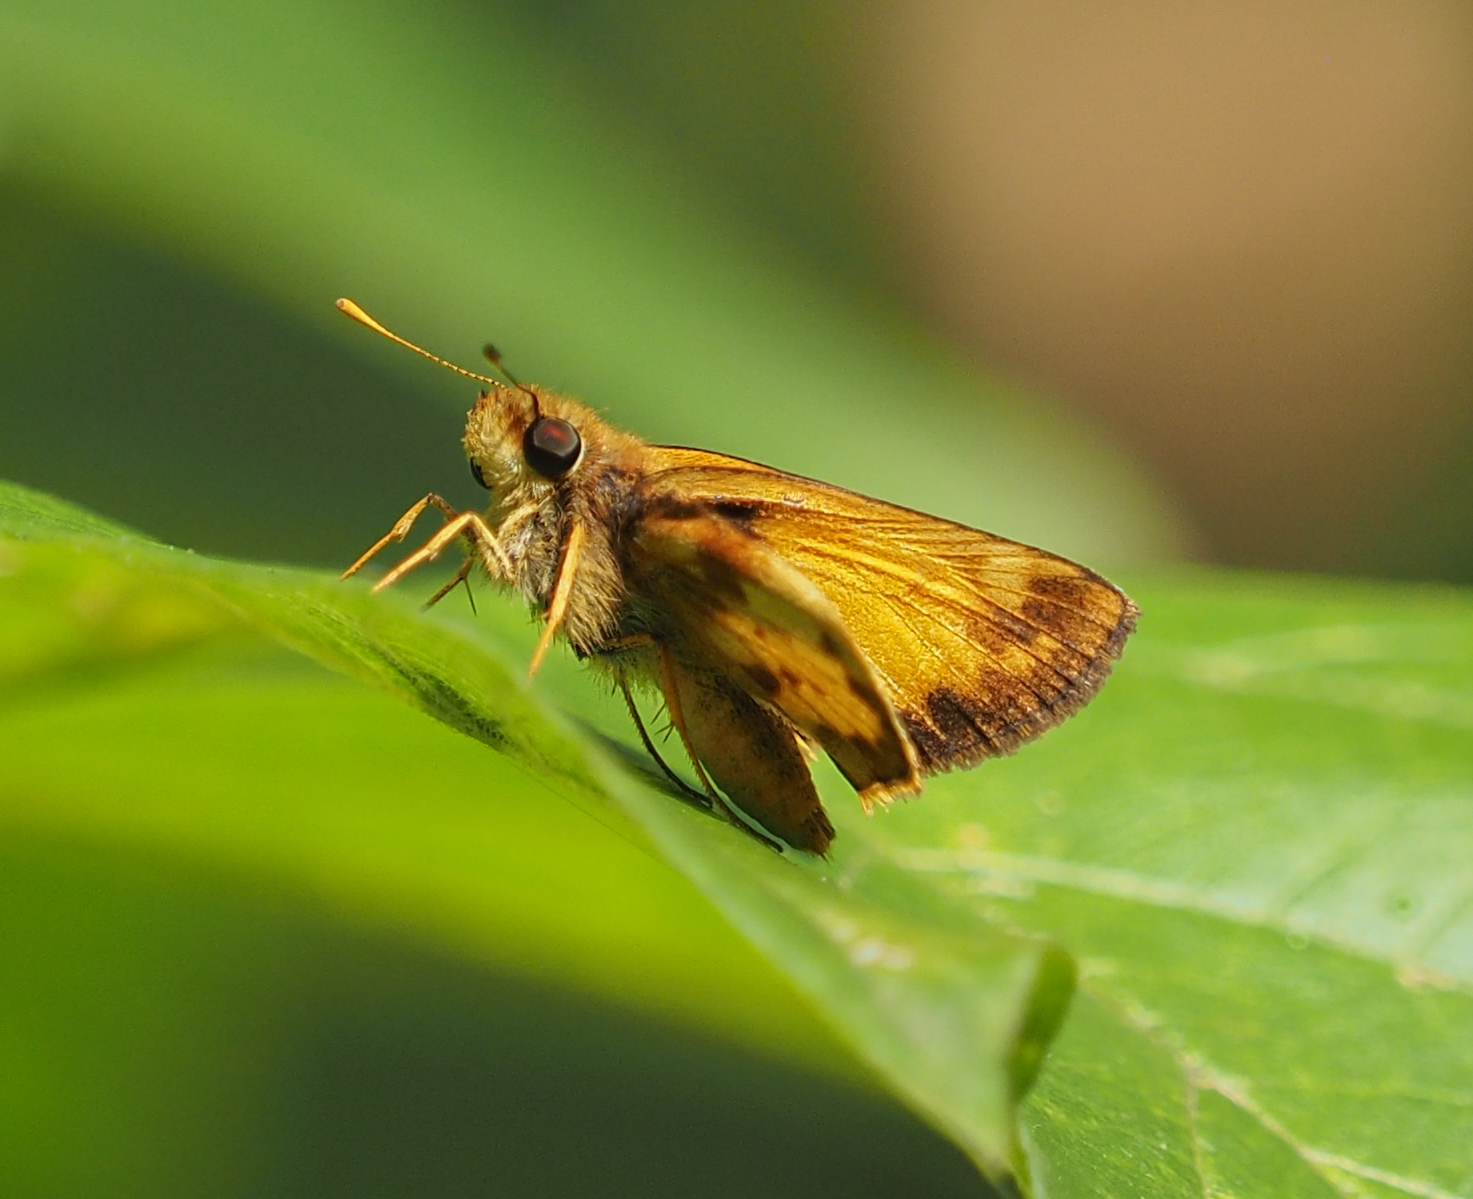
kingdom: Animalia
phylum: Arthropoda
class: Insecta
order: Lepidoptera
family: Hesperiidae
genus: Lon
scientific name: Lon zabulon
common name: Zabulon skipper
